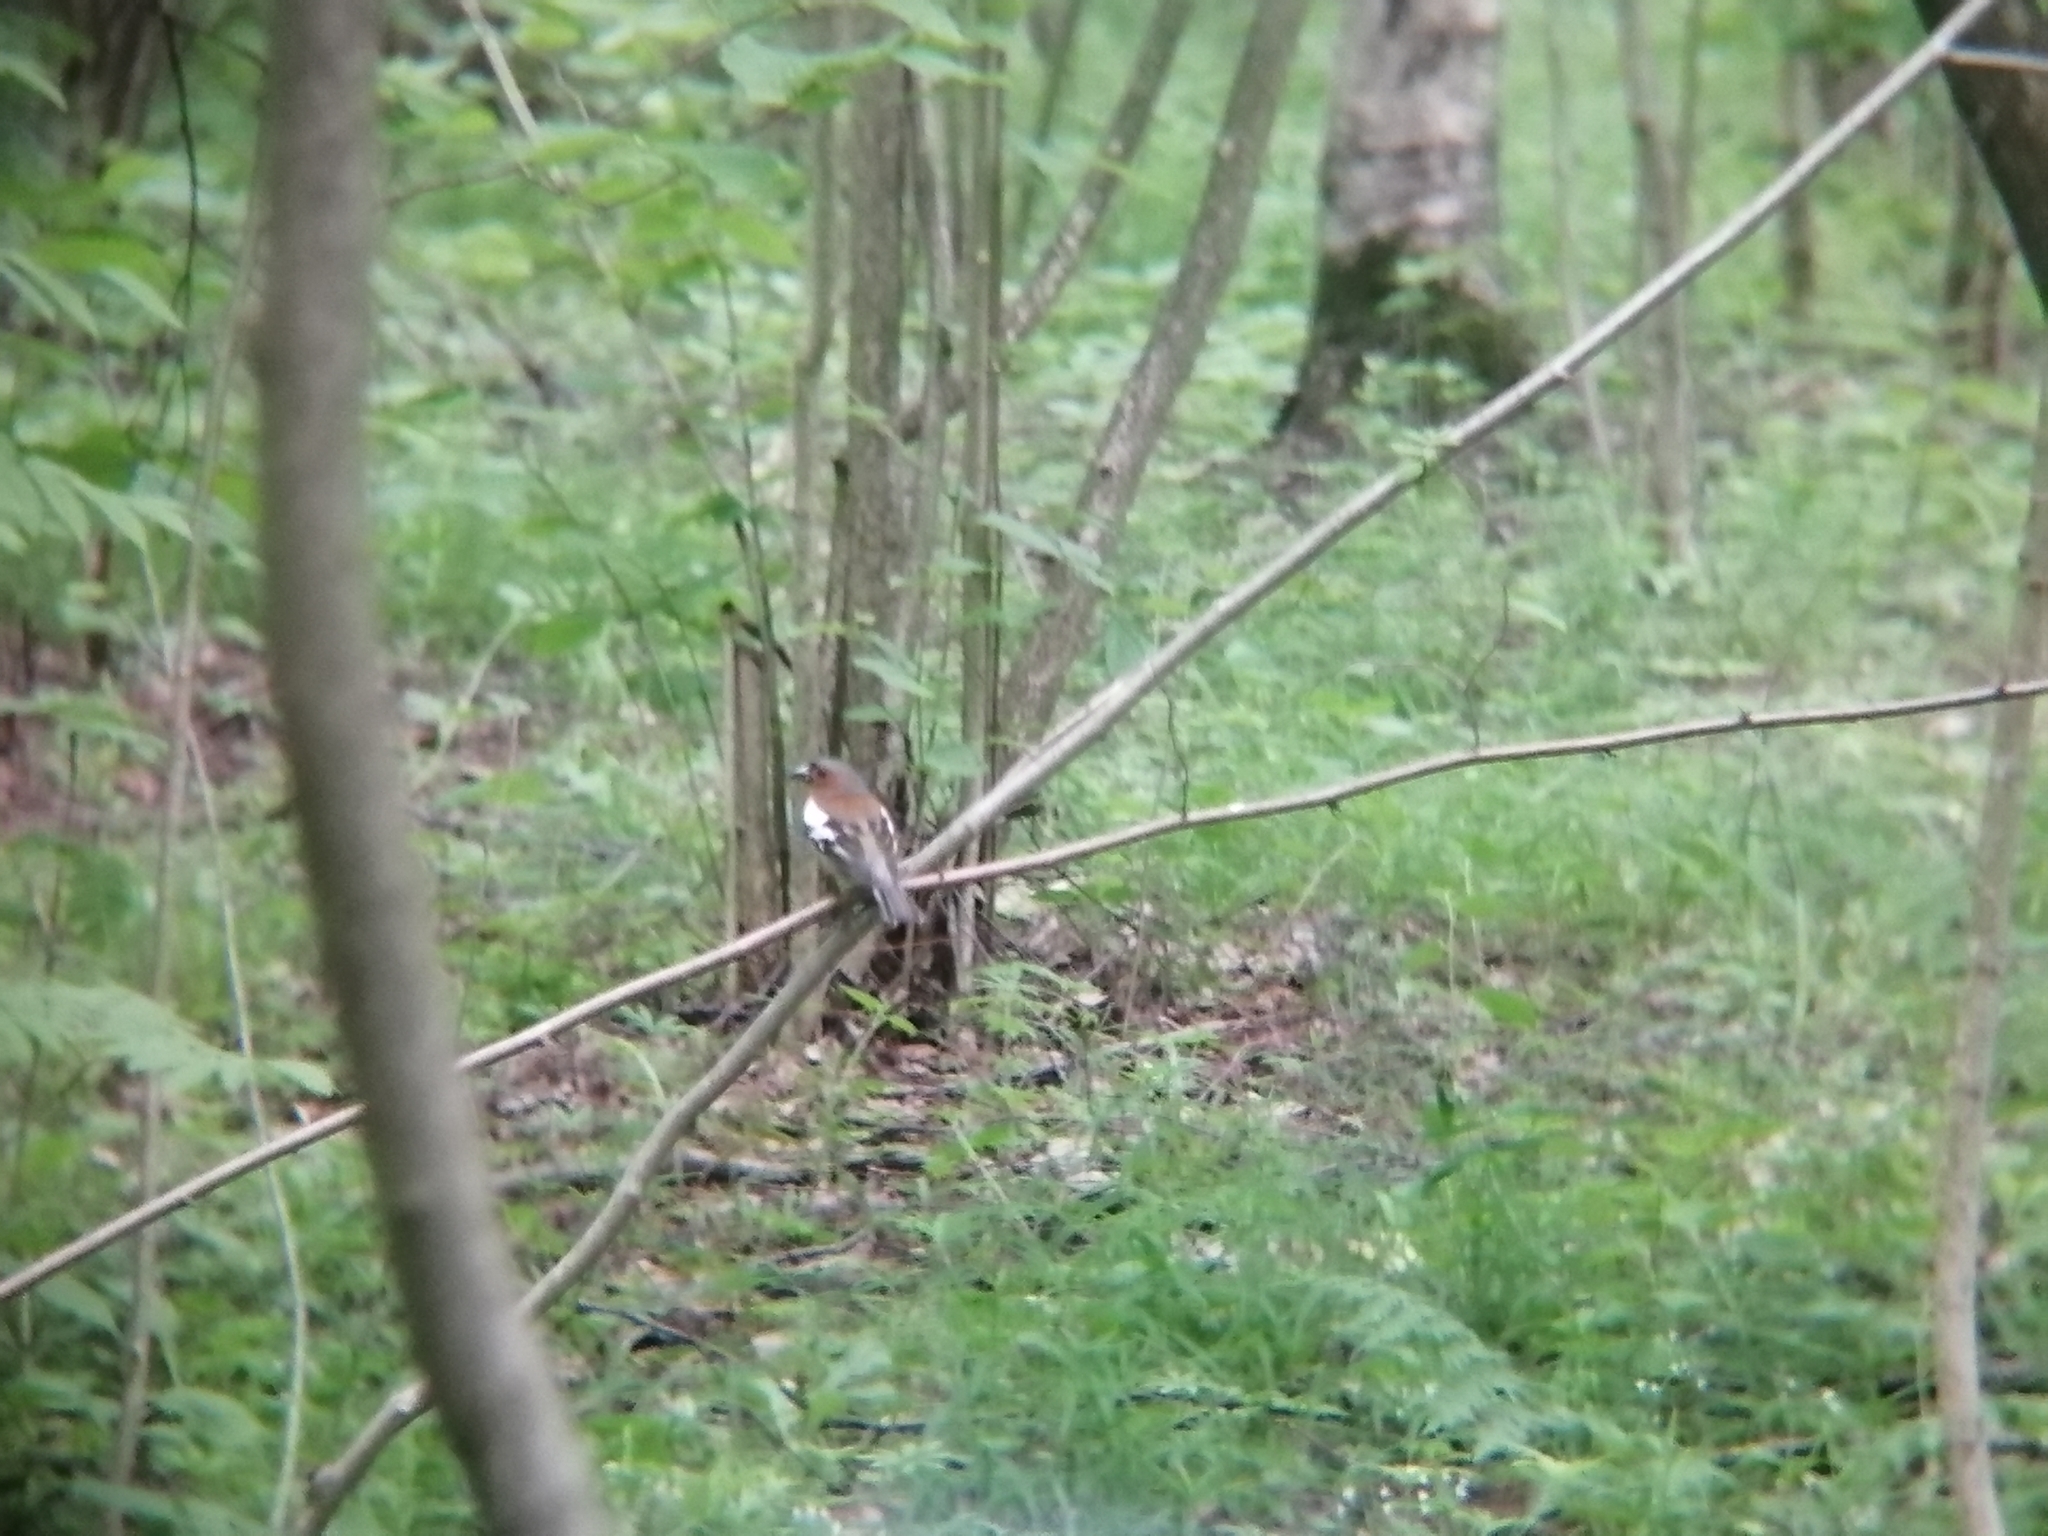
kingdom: Animalia
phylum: Chordata
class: Aves
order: Passeriformes
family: Fringillidae
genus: Fringilla
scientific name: Fringilla coelebs
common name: Common chaffinch
